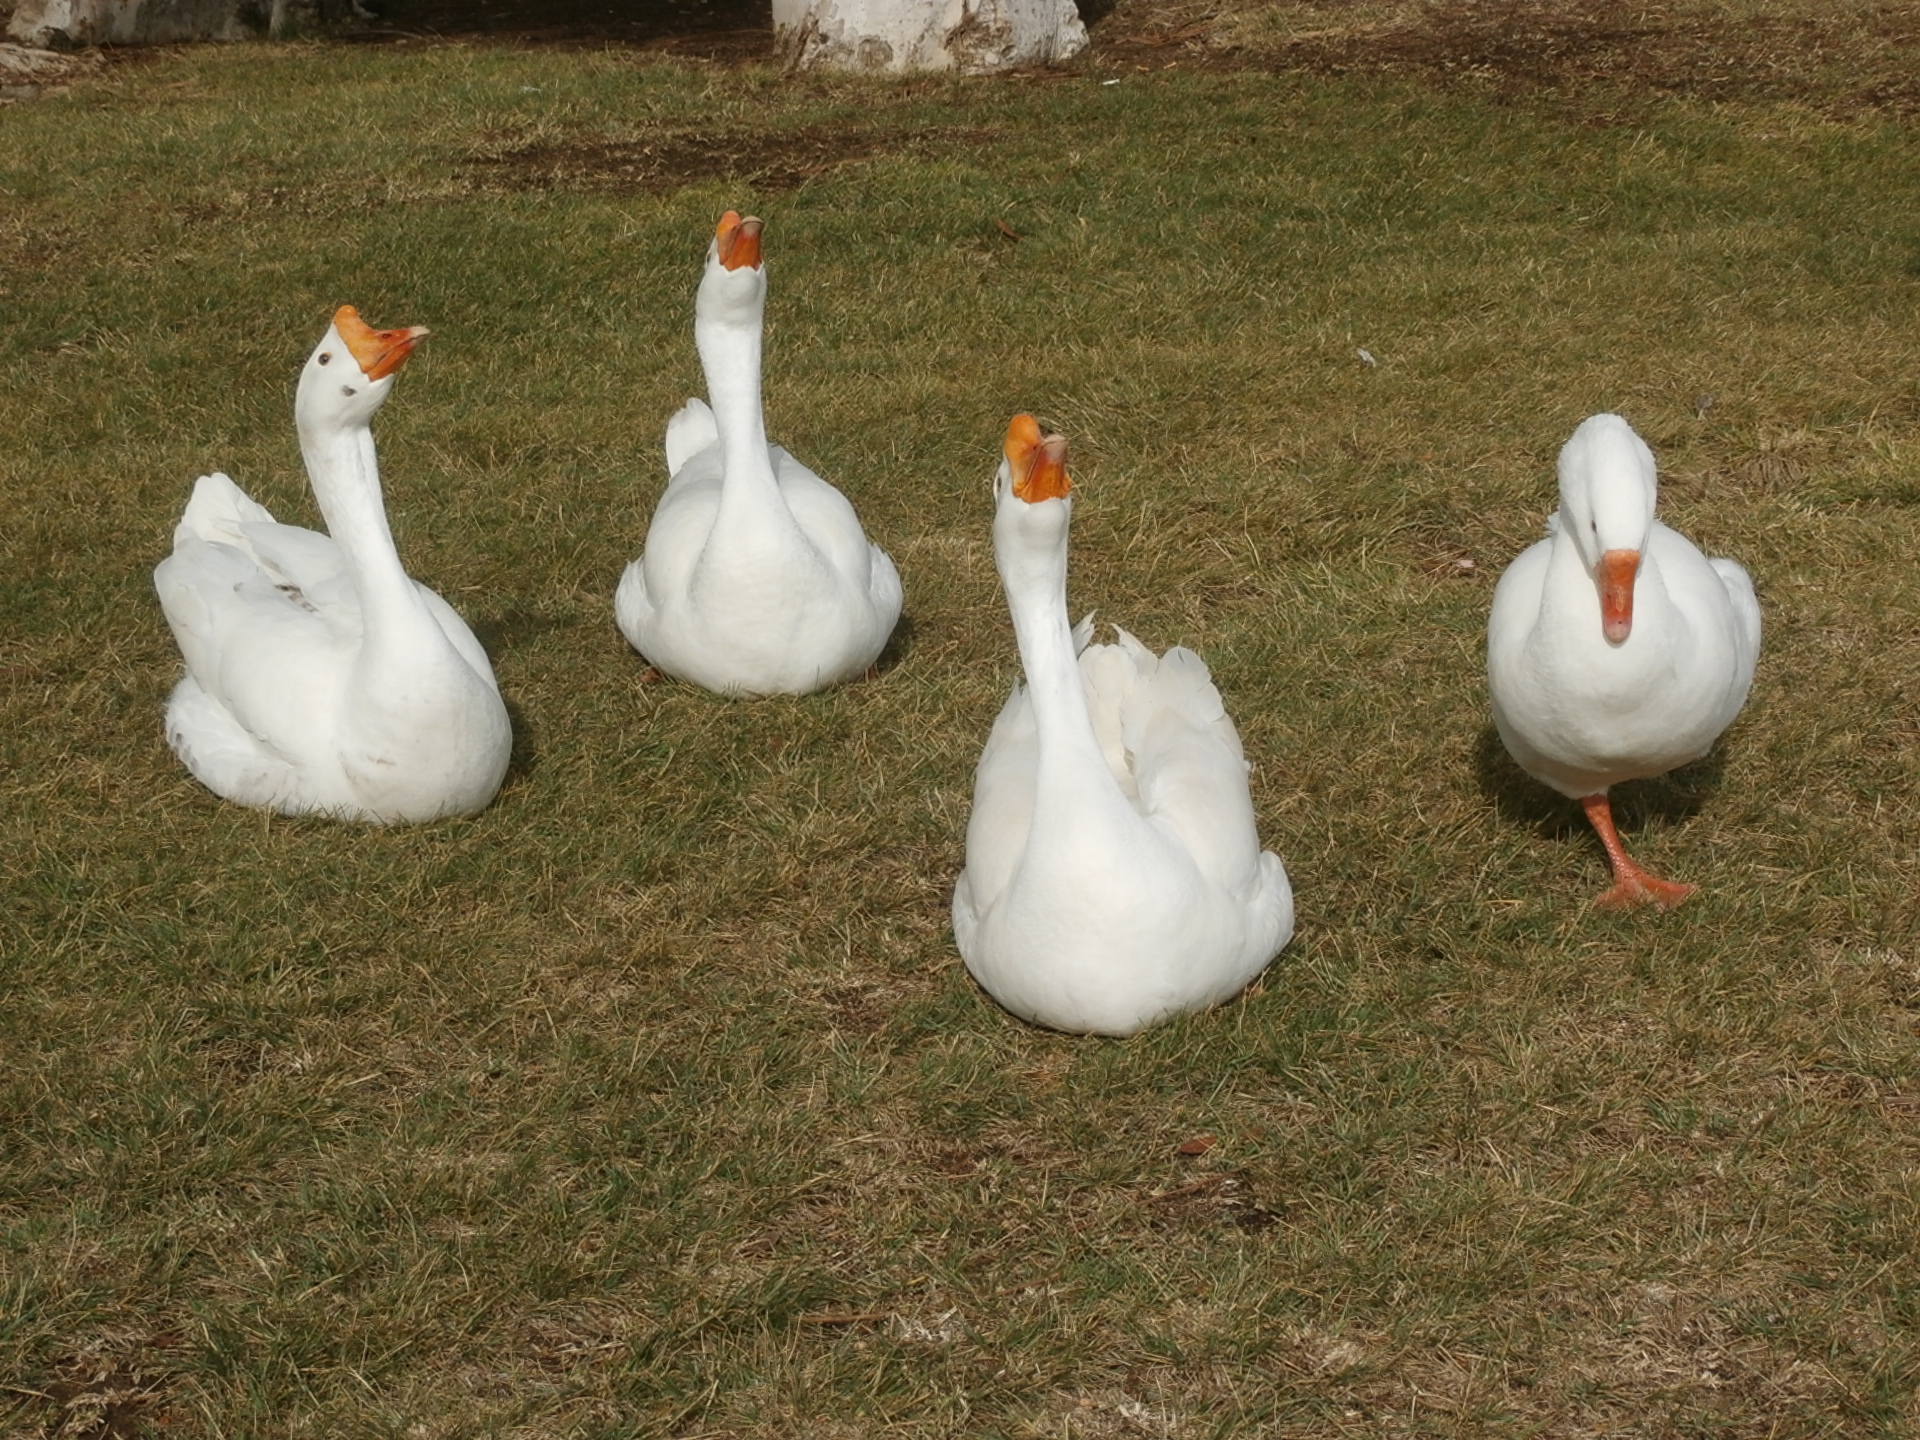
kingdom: Animalia
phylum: Chordata
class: Aves
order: Anseriformes
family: Anatidae
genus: Anser
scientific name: Anser cygnoides
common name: Swan goose
